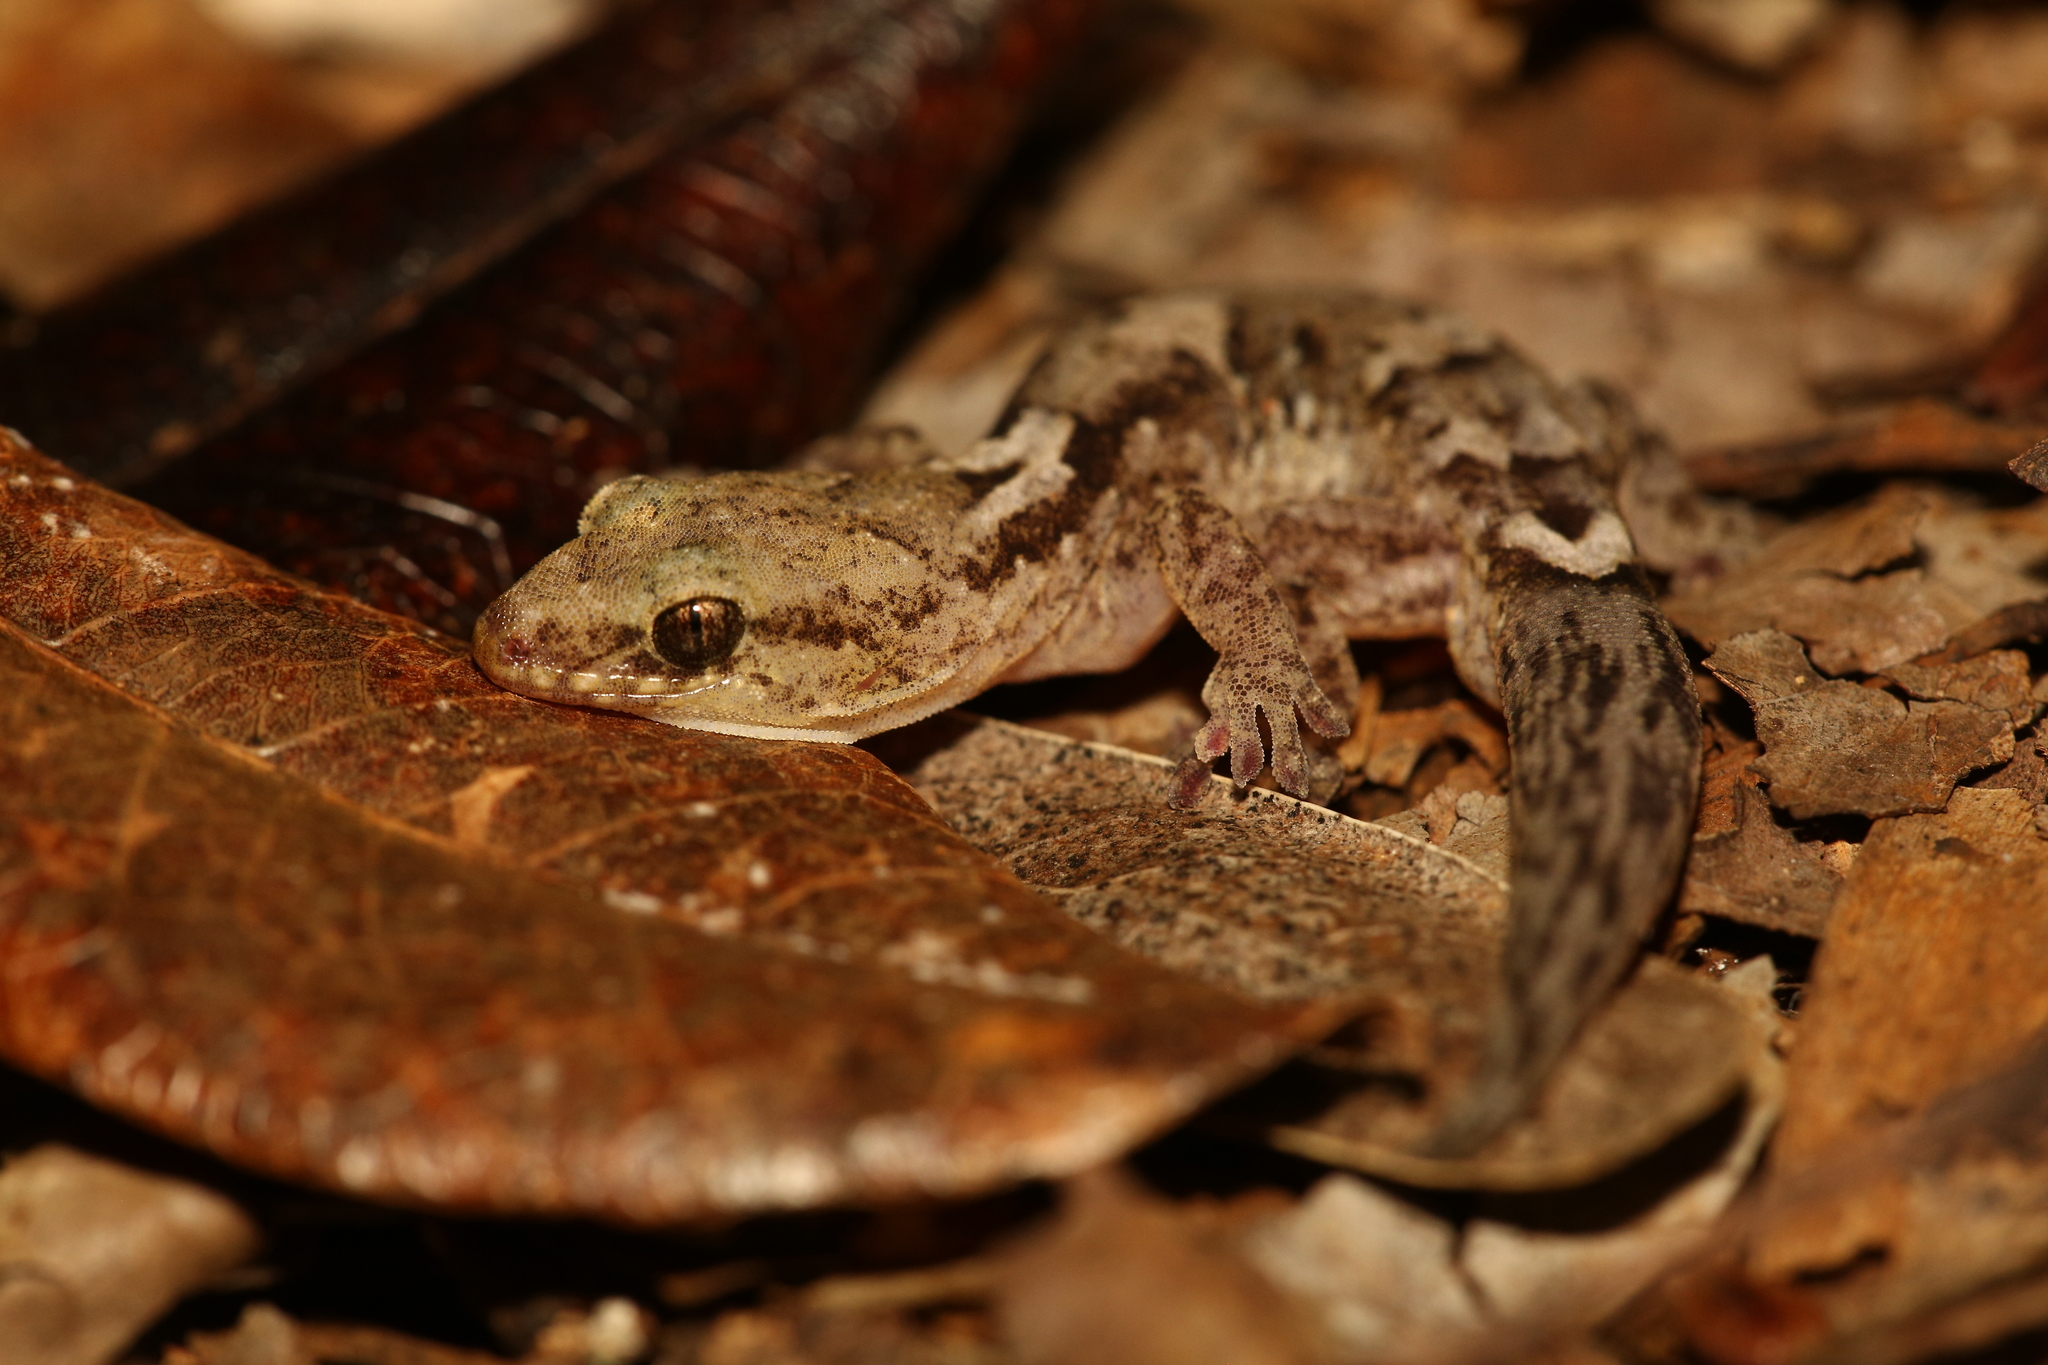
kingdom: Animalia
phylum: Chordata
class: Squamata
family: Diplodactylidae
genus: Bavayia
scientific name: Bavayia exsuccida
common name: Sclerophyll bavayia
